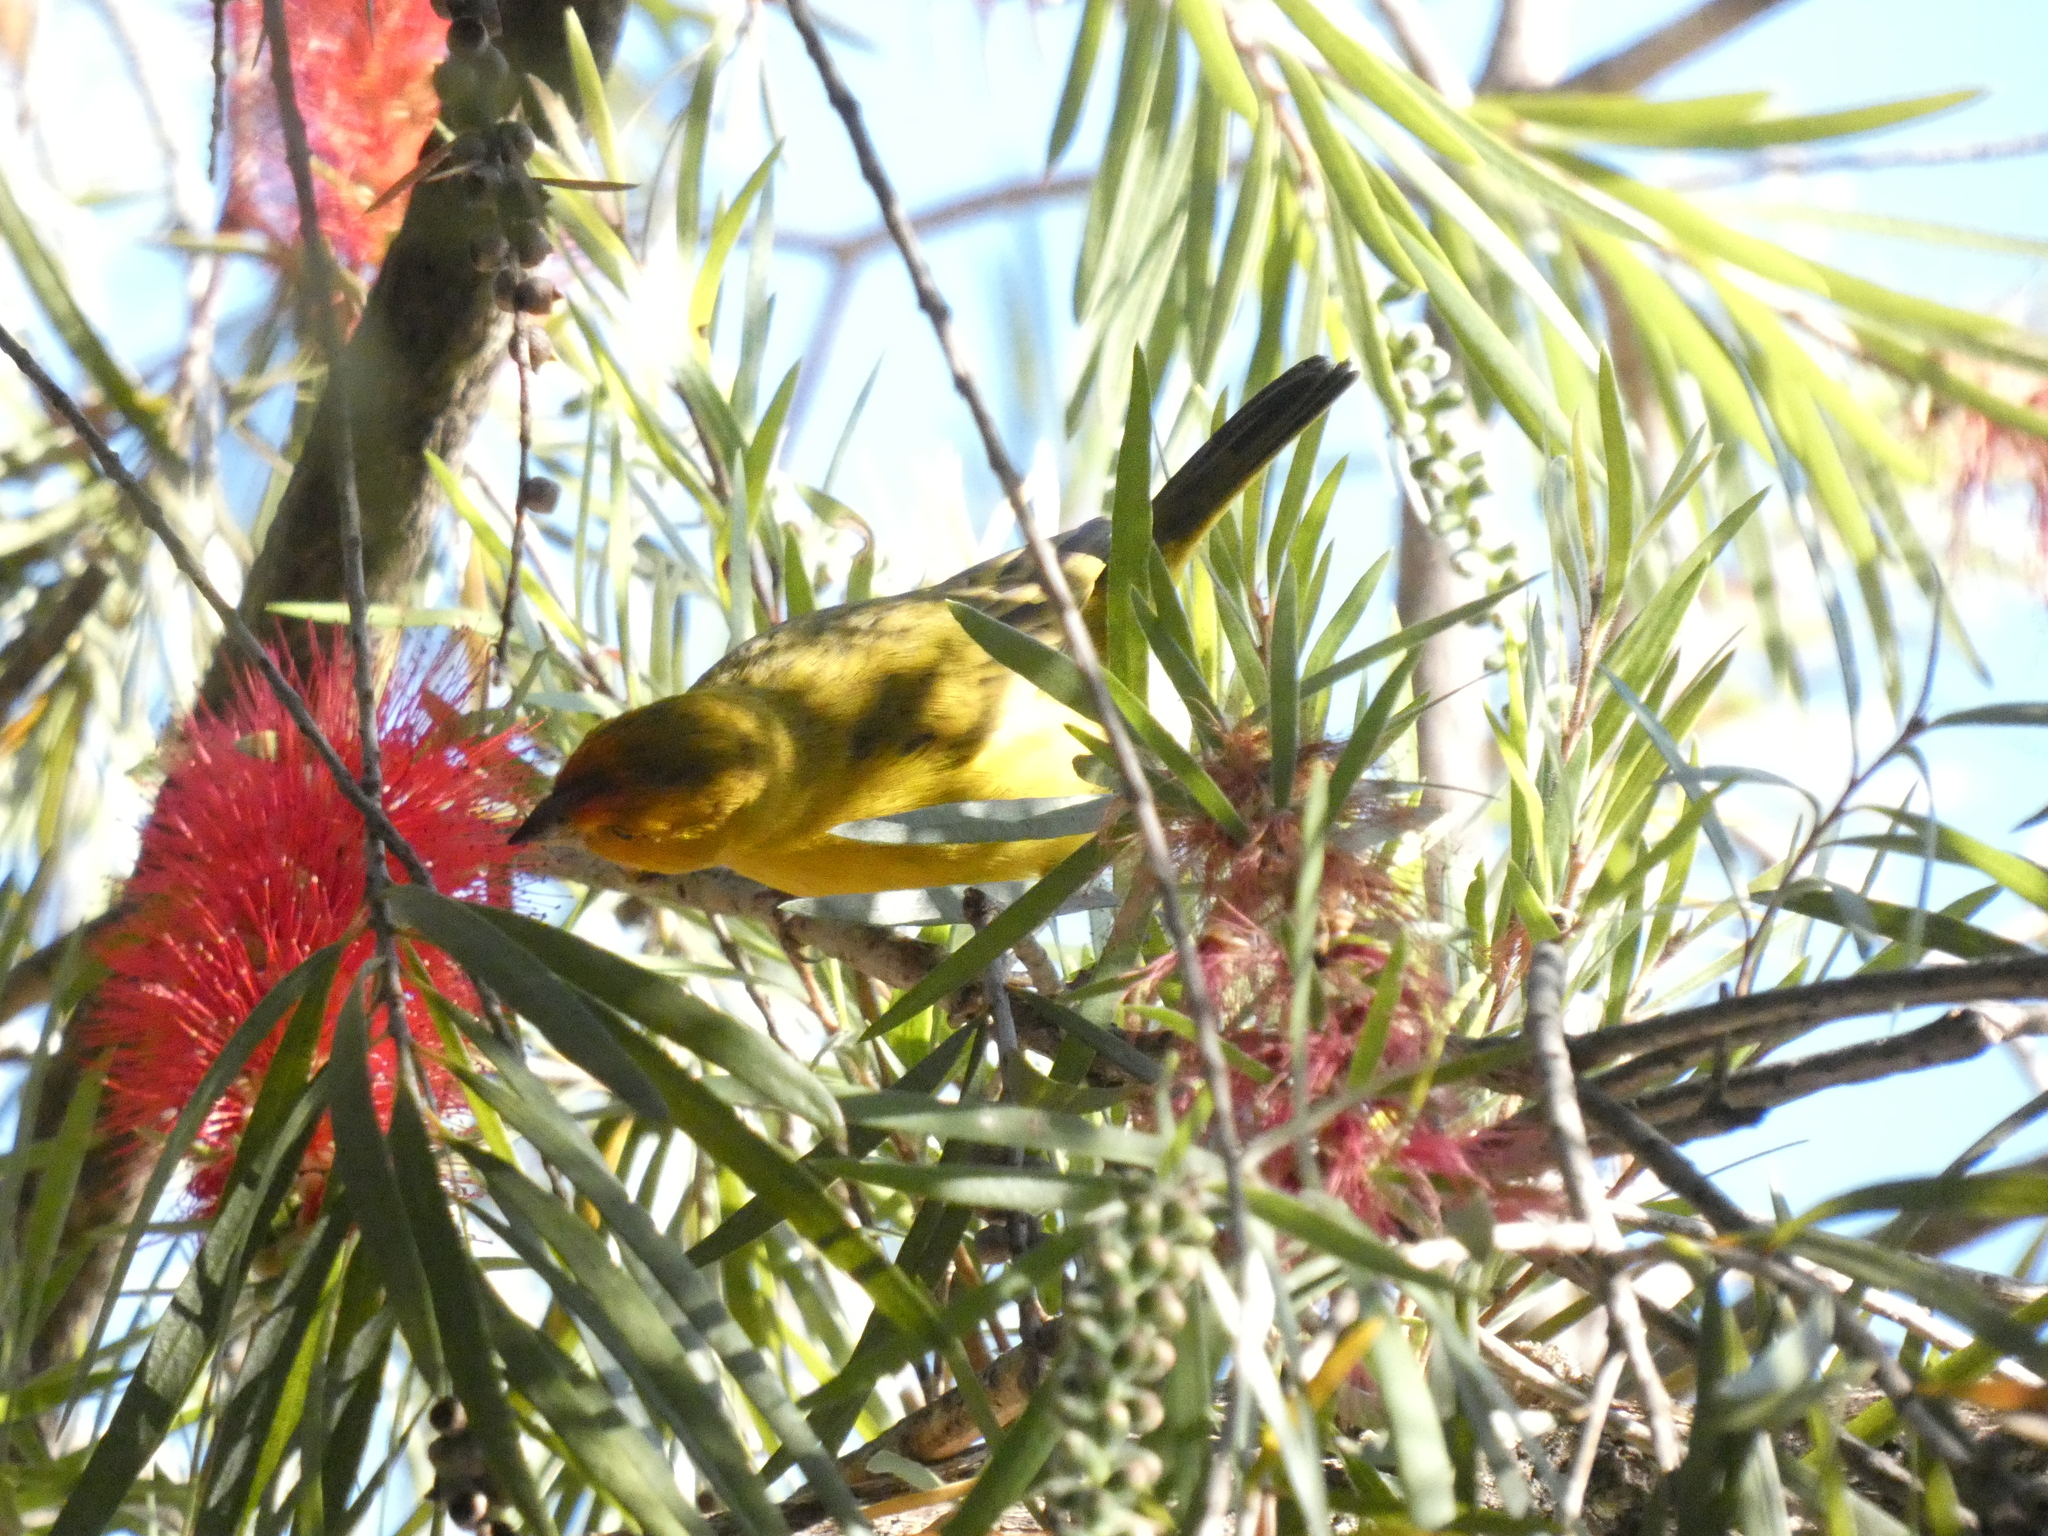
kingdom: Animalia
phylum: Chordata
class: Aves
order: Passeriformes
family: Thraupidae
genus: Sicalis
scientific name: Sicalis flaveola
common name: Saffron finch
